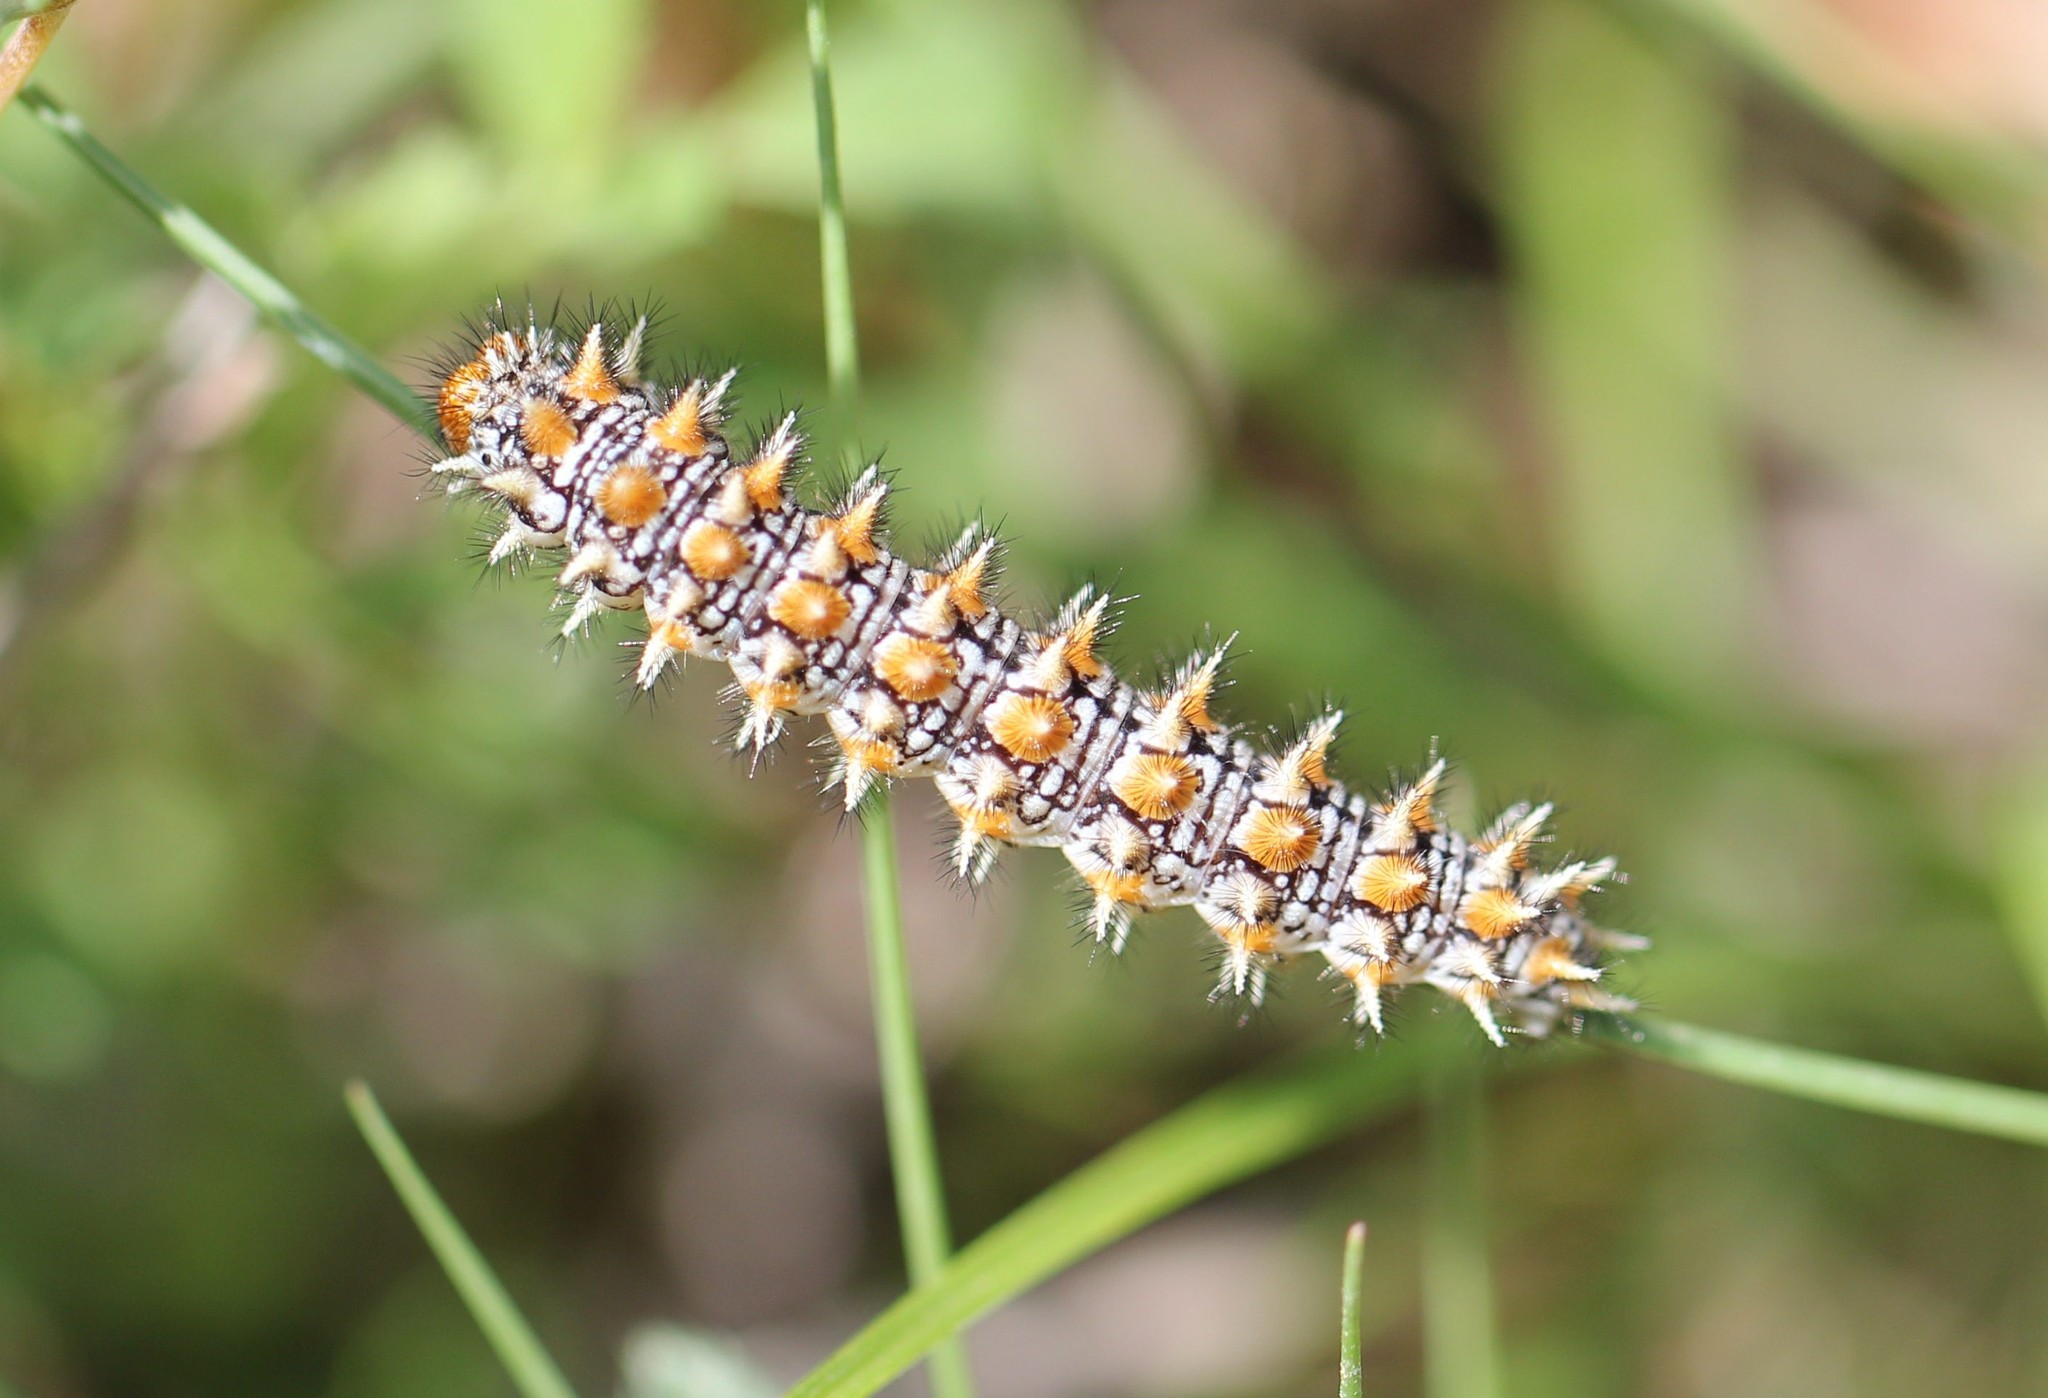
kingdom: Animalia
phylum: Arthropoda
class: Insecta
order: Lepidoptera
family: Nymphalidae
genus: Melitaea
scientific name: Melitaea didyma
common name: Spotted fritillary
